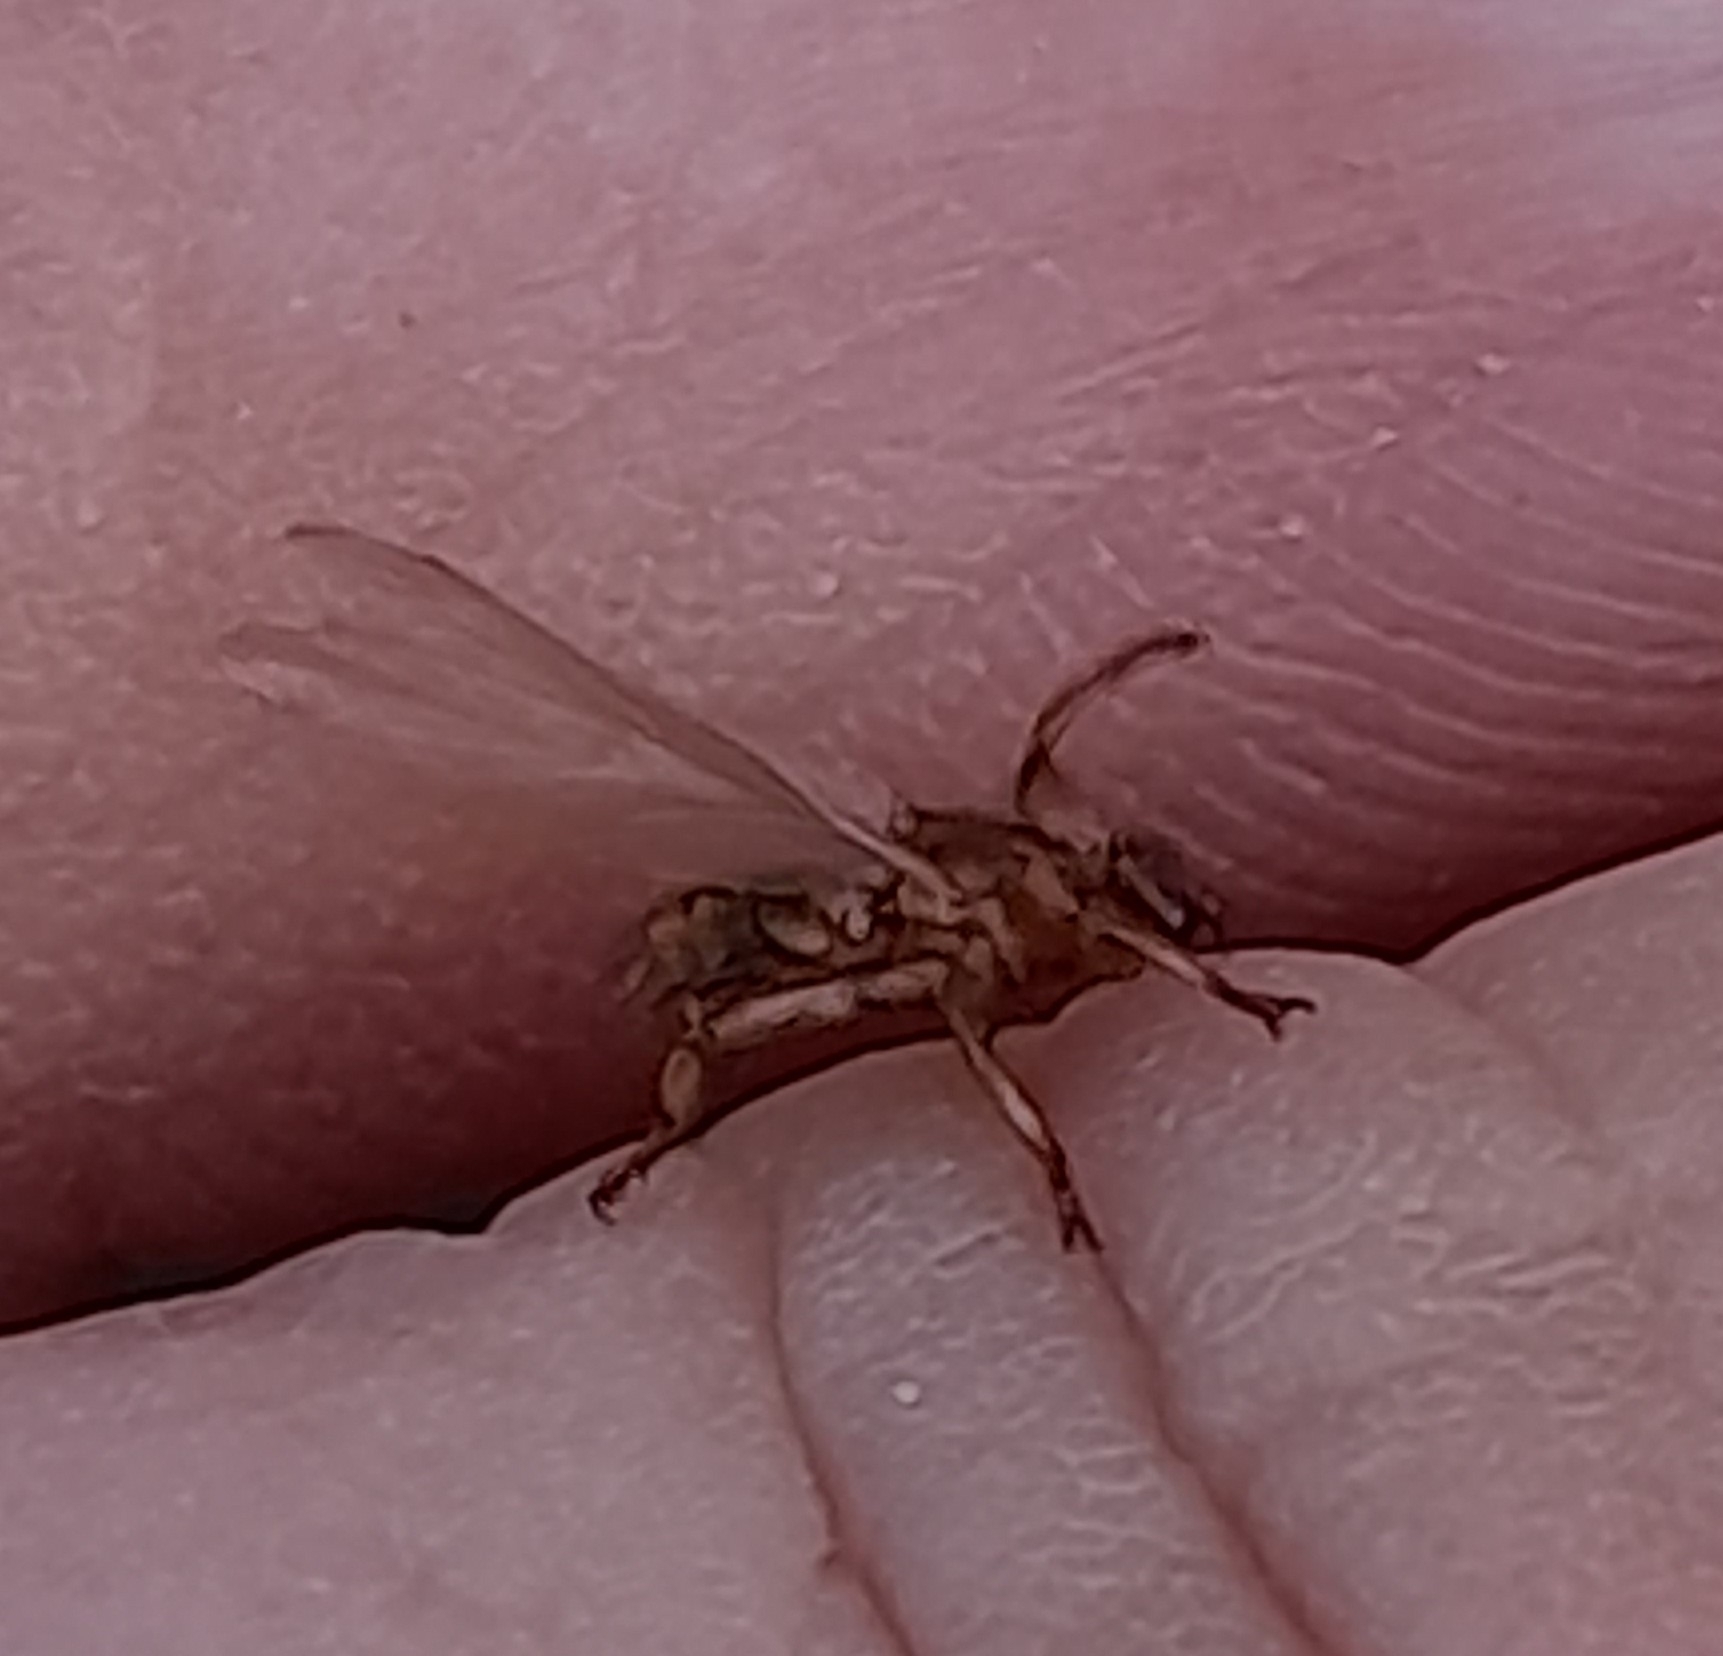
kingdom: Animalia
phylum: Arthropoda
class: Insecta
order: Diptera
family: Hippoboscidae
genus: Lipoptena
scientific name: Lipoptena cervi
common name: Deer ked
